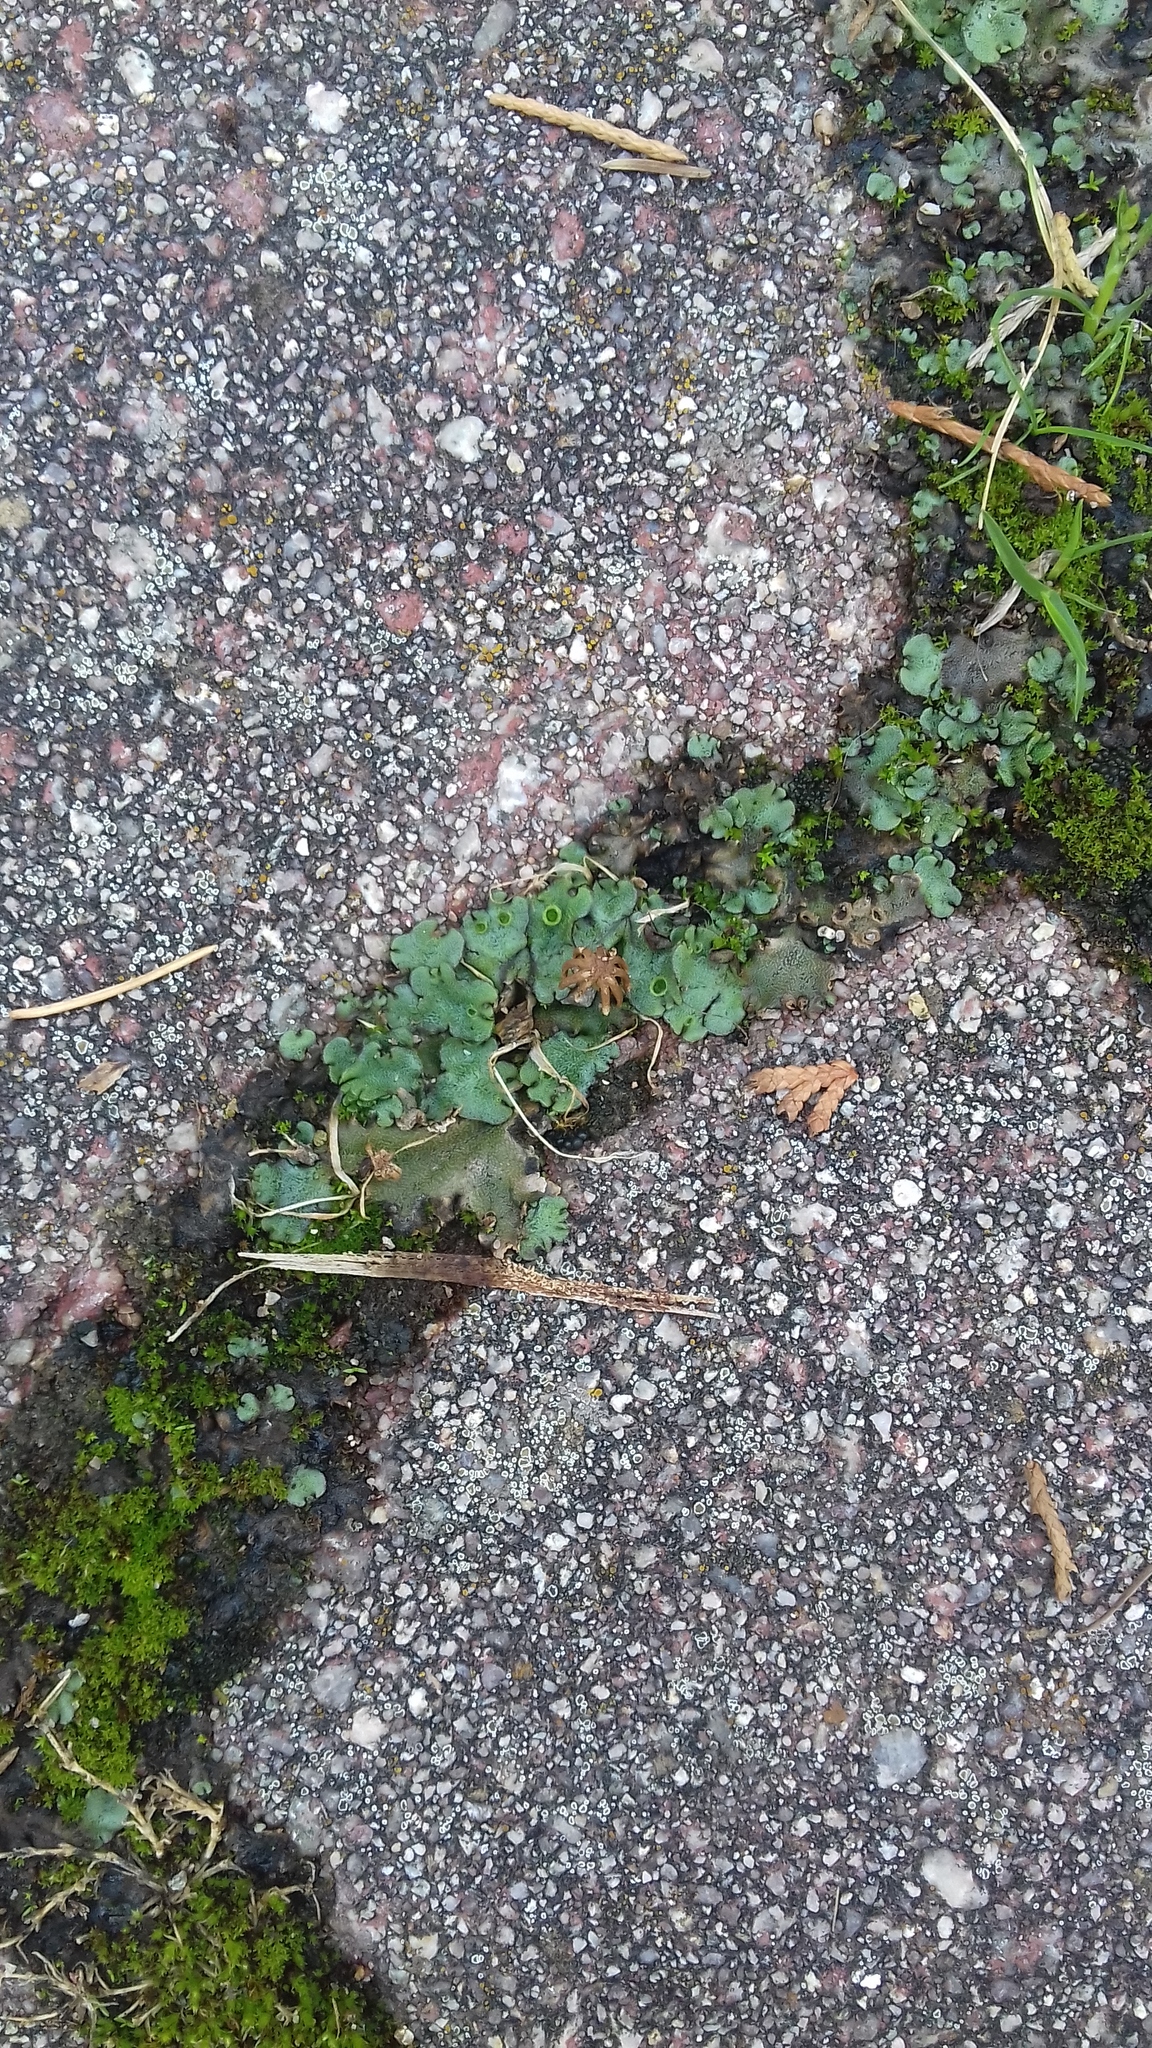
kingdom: Plantae
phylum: Marchantiophyta
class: Marchantiopsida
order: Marchantiales
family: Marchantiaceae
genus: Marchantia
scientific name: Marchantia polymorpha
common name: Common liverwort
